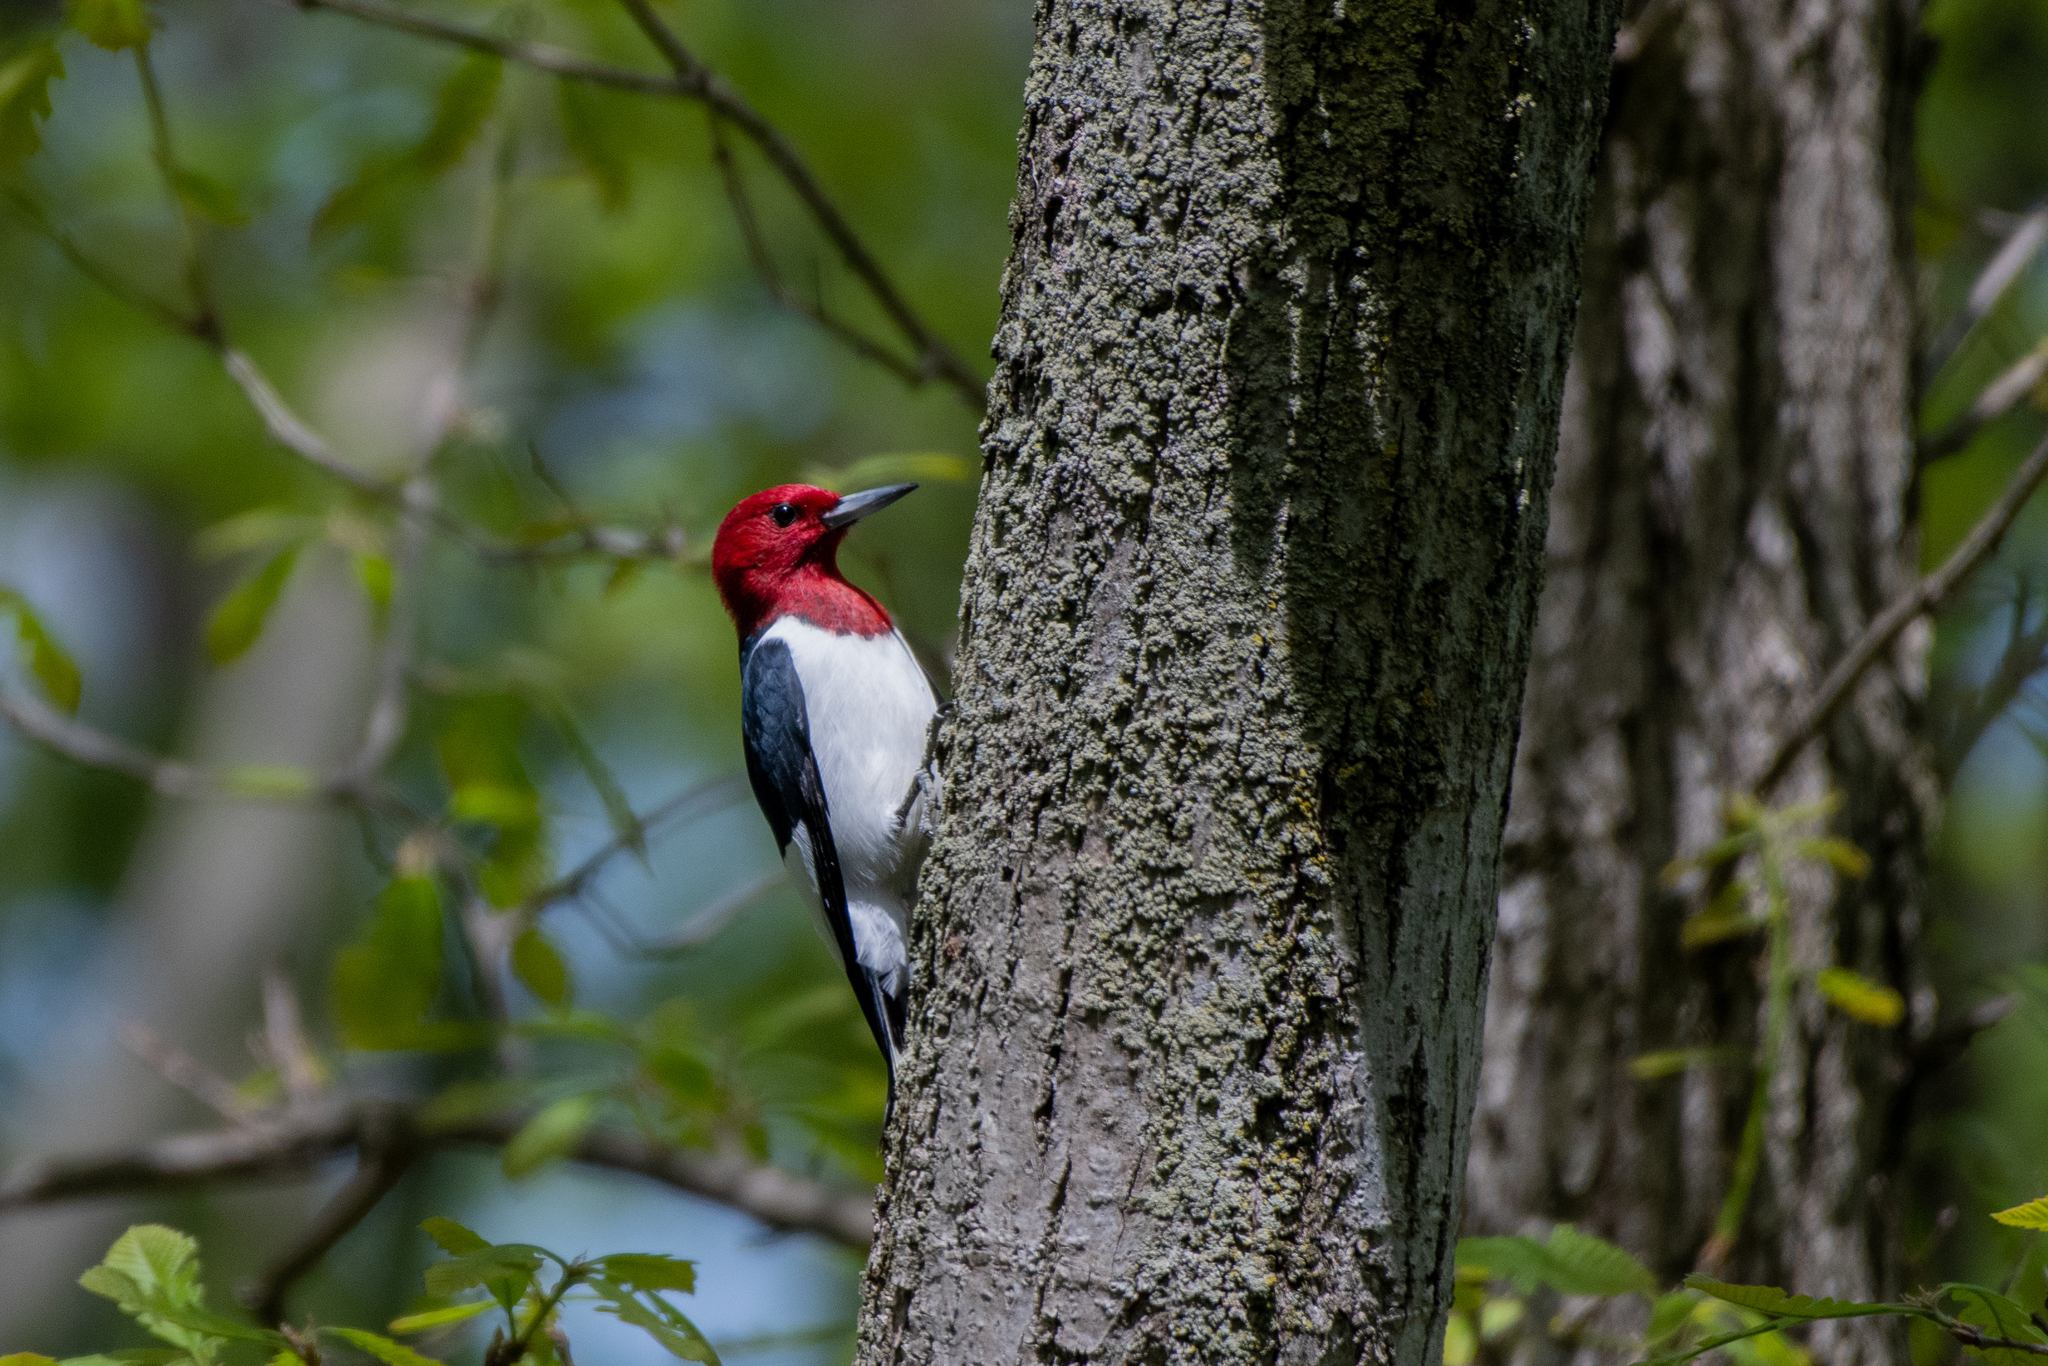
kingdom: Animalia
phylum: Chordata
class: Aves
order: Piciformes
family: Picidae
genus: Melanerpes
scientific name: Melanerpes erythrocephalus
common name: Red-headed woodpecker
